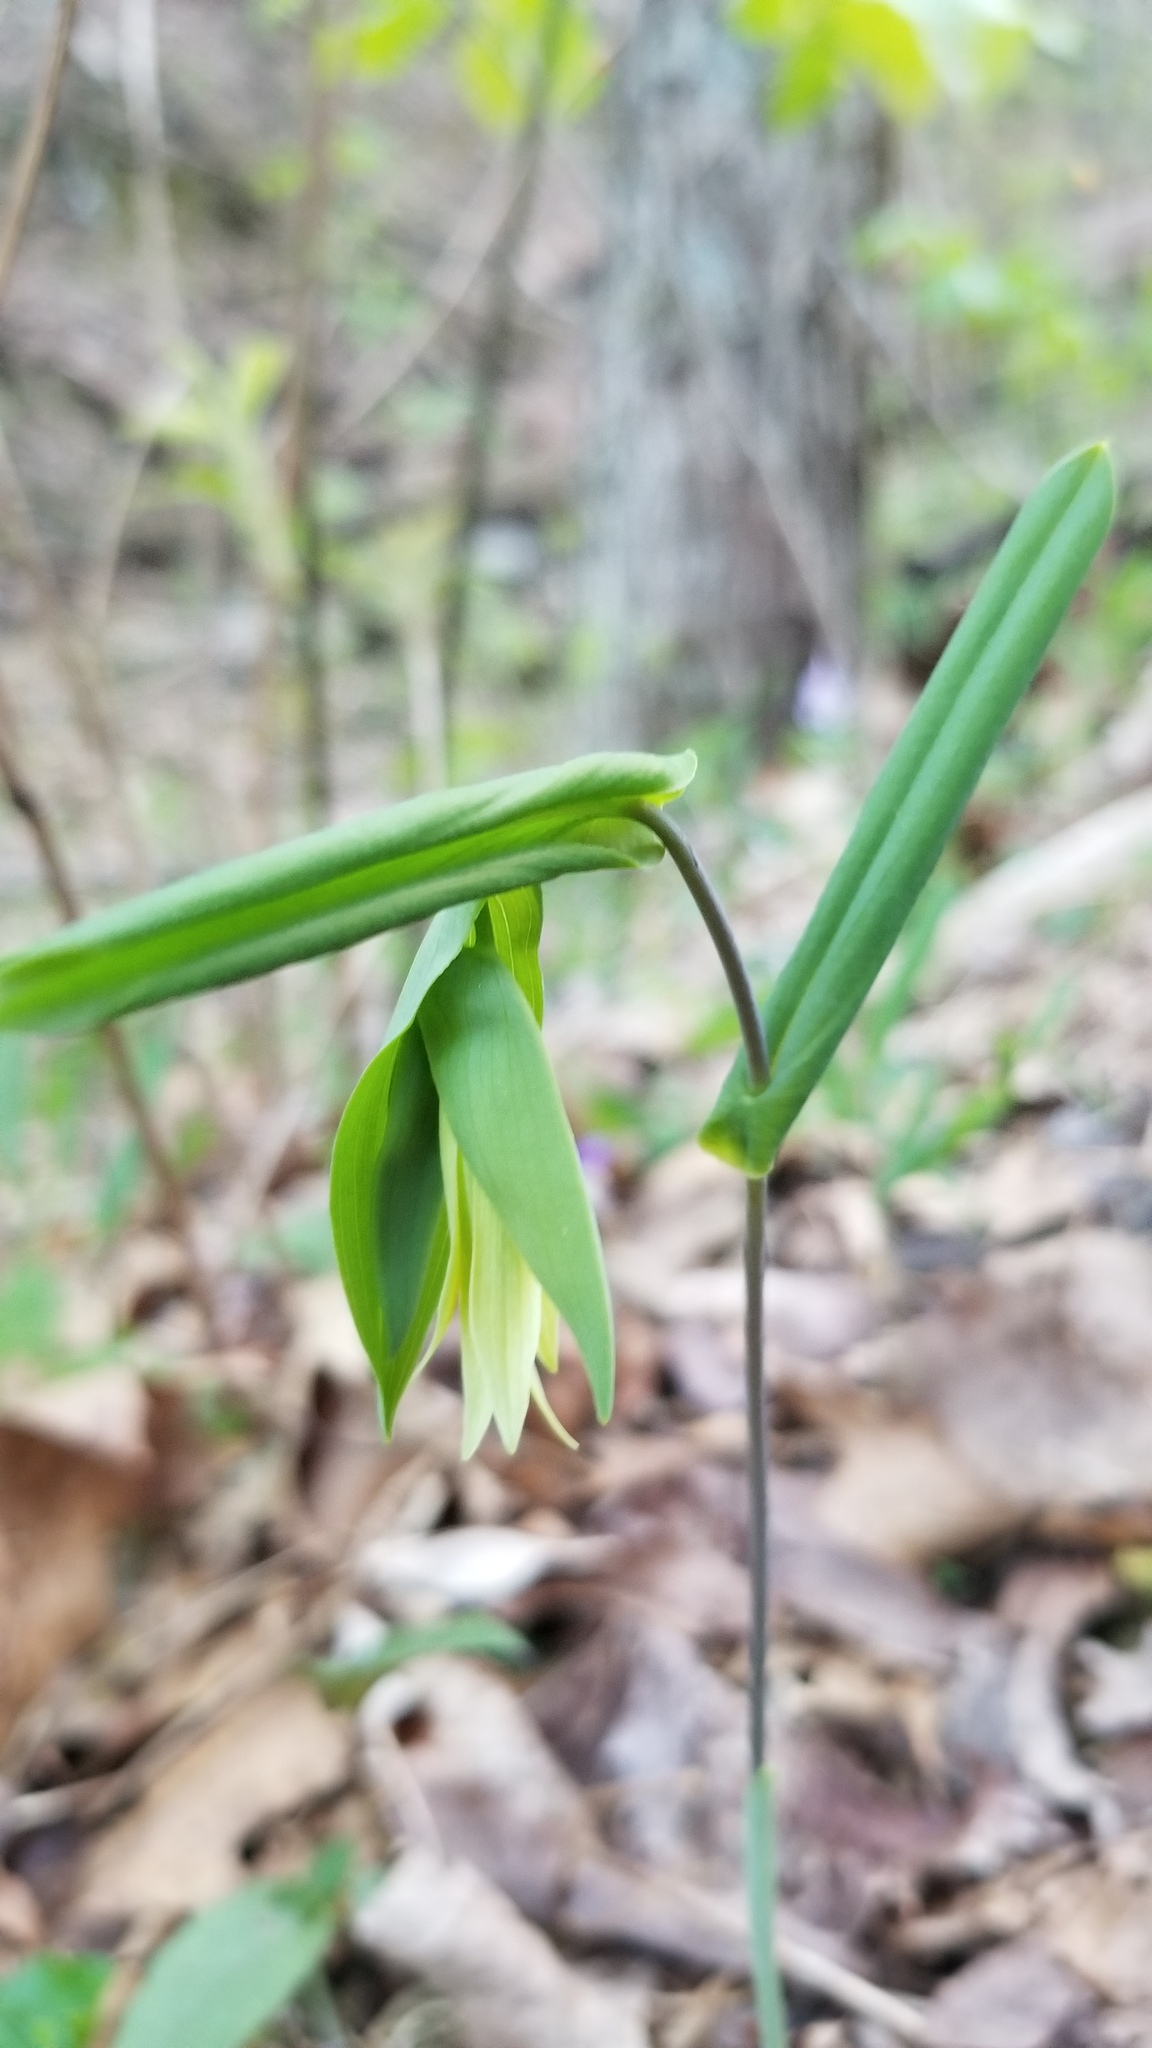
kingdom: Plantae
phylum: Tracheophyta
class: Liliopsida
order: Liliales
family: Colchicaceae
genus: Uvularia
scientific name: Uvularia perfoliata
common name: Perfoliate bellwort
